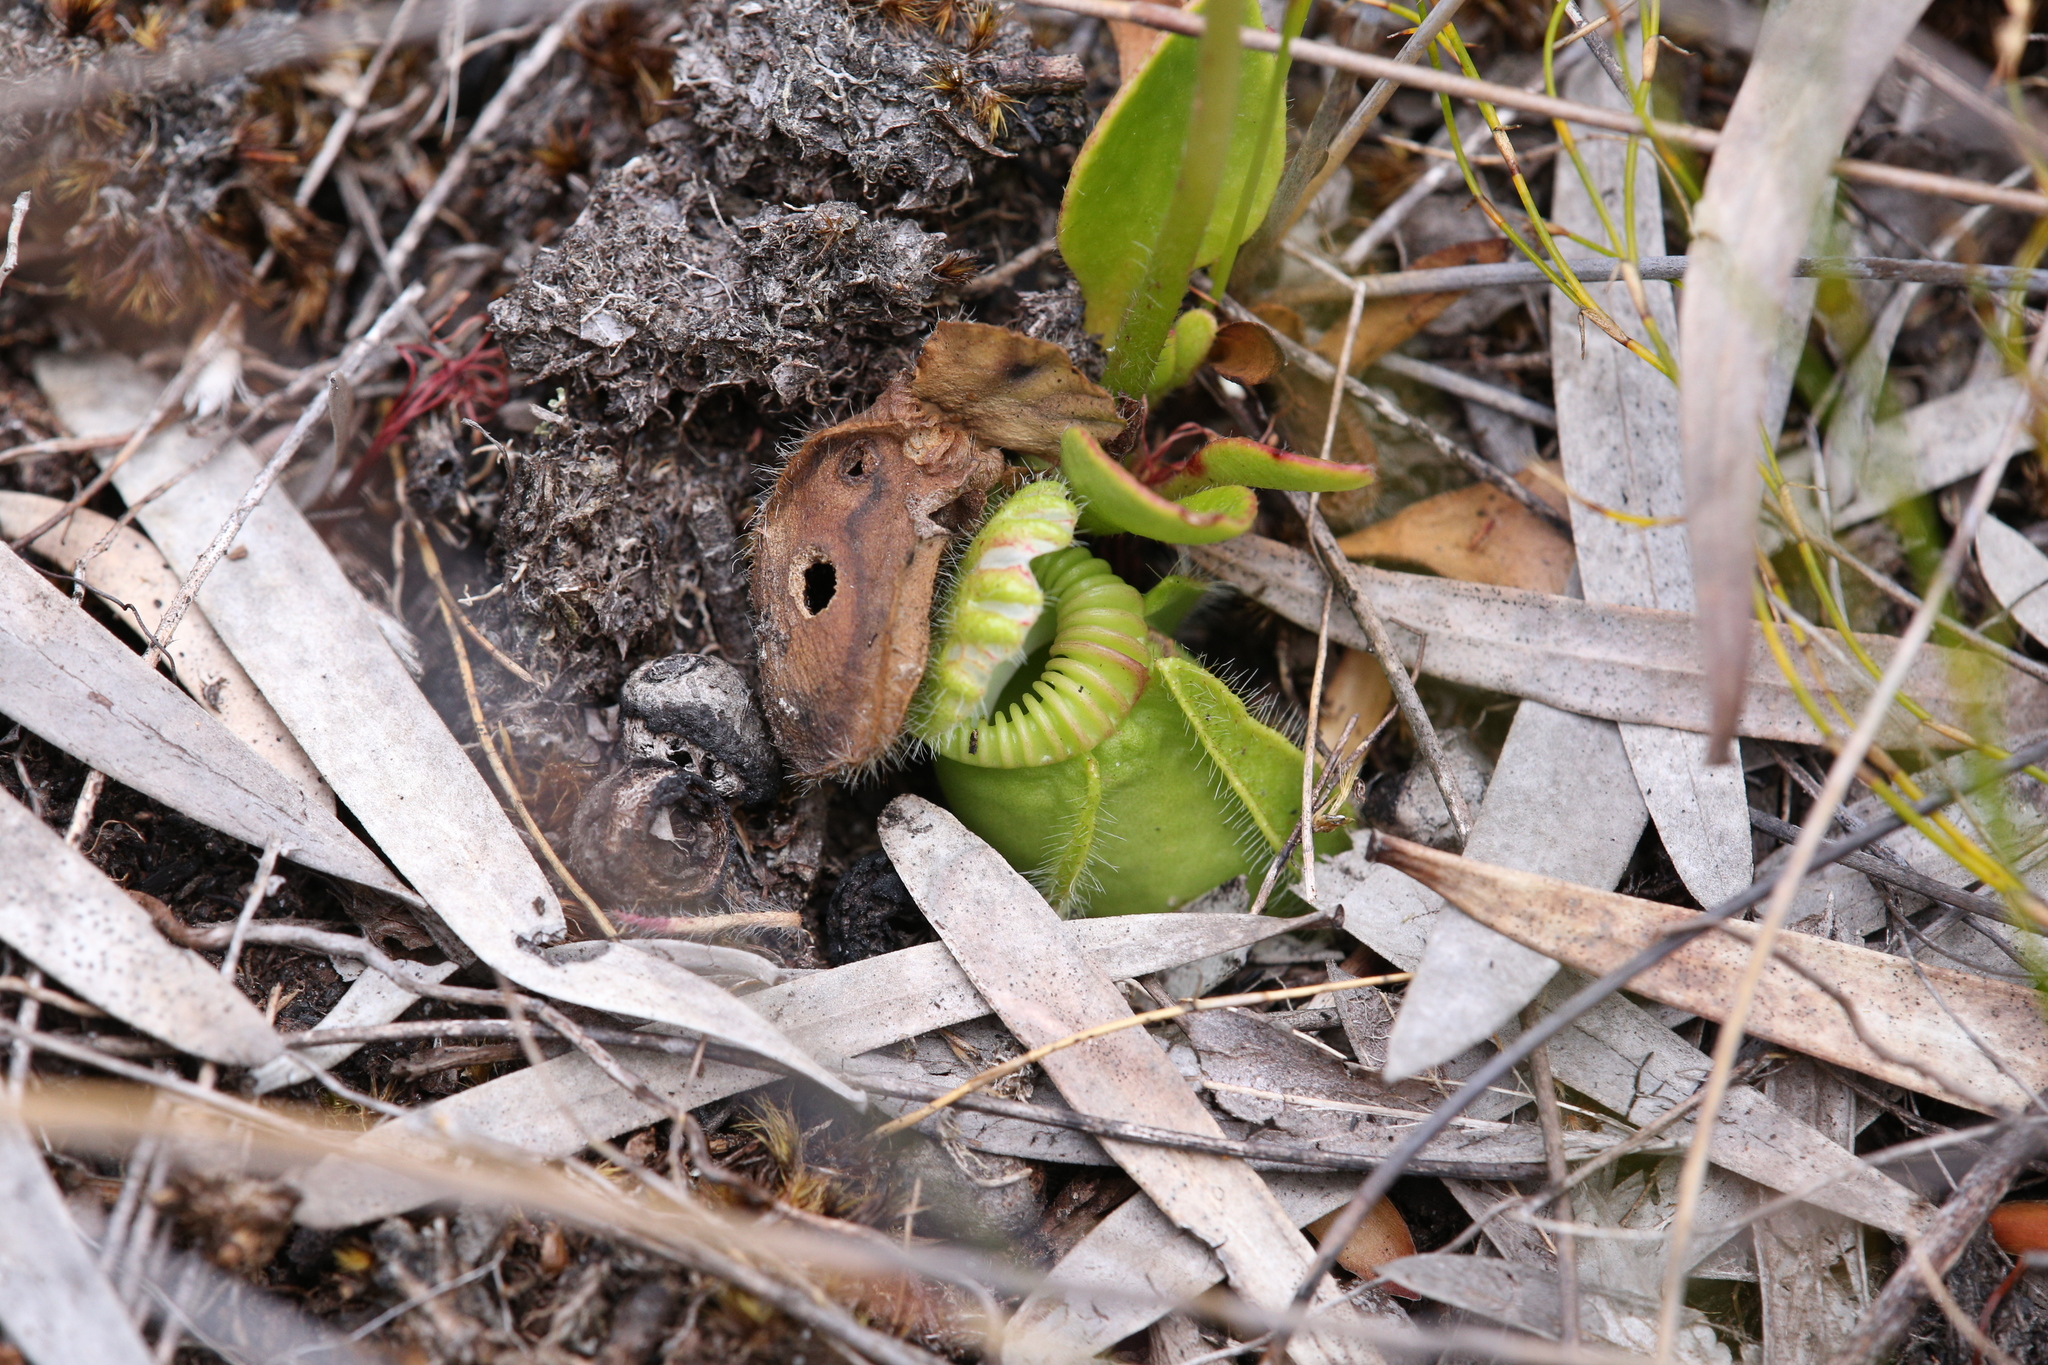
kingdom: Plantae
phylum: Tracheophyta
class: Magnoliopsida
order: Oxalidales
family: Cephalotaceae
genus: Cephalotus
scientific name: Cephalotus follicularis
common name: Australian pitcher plant
